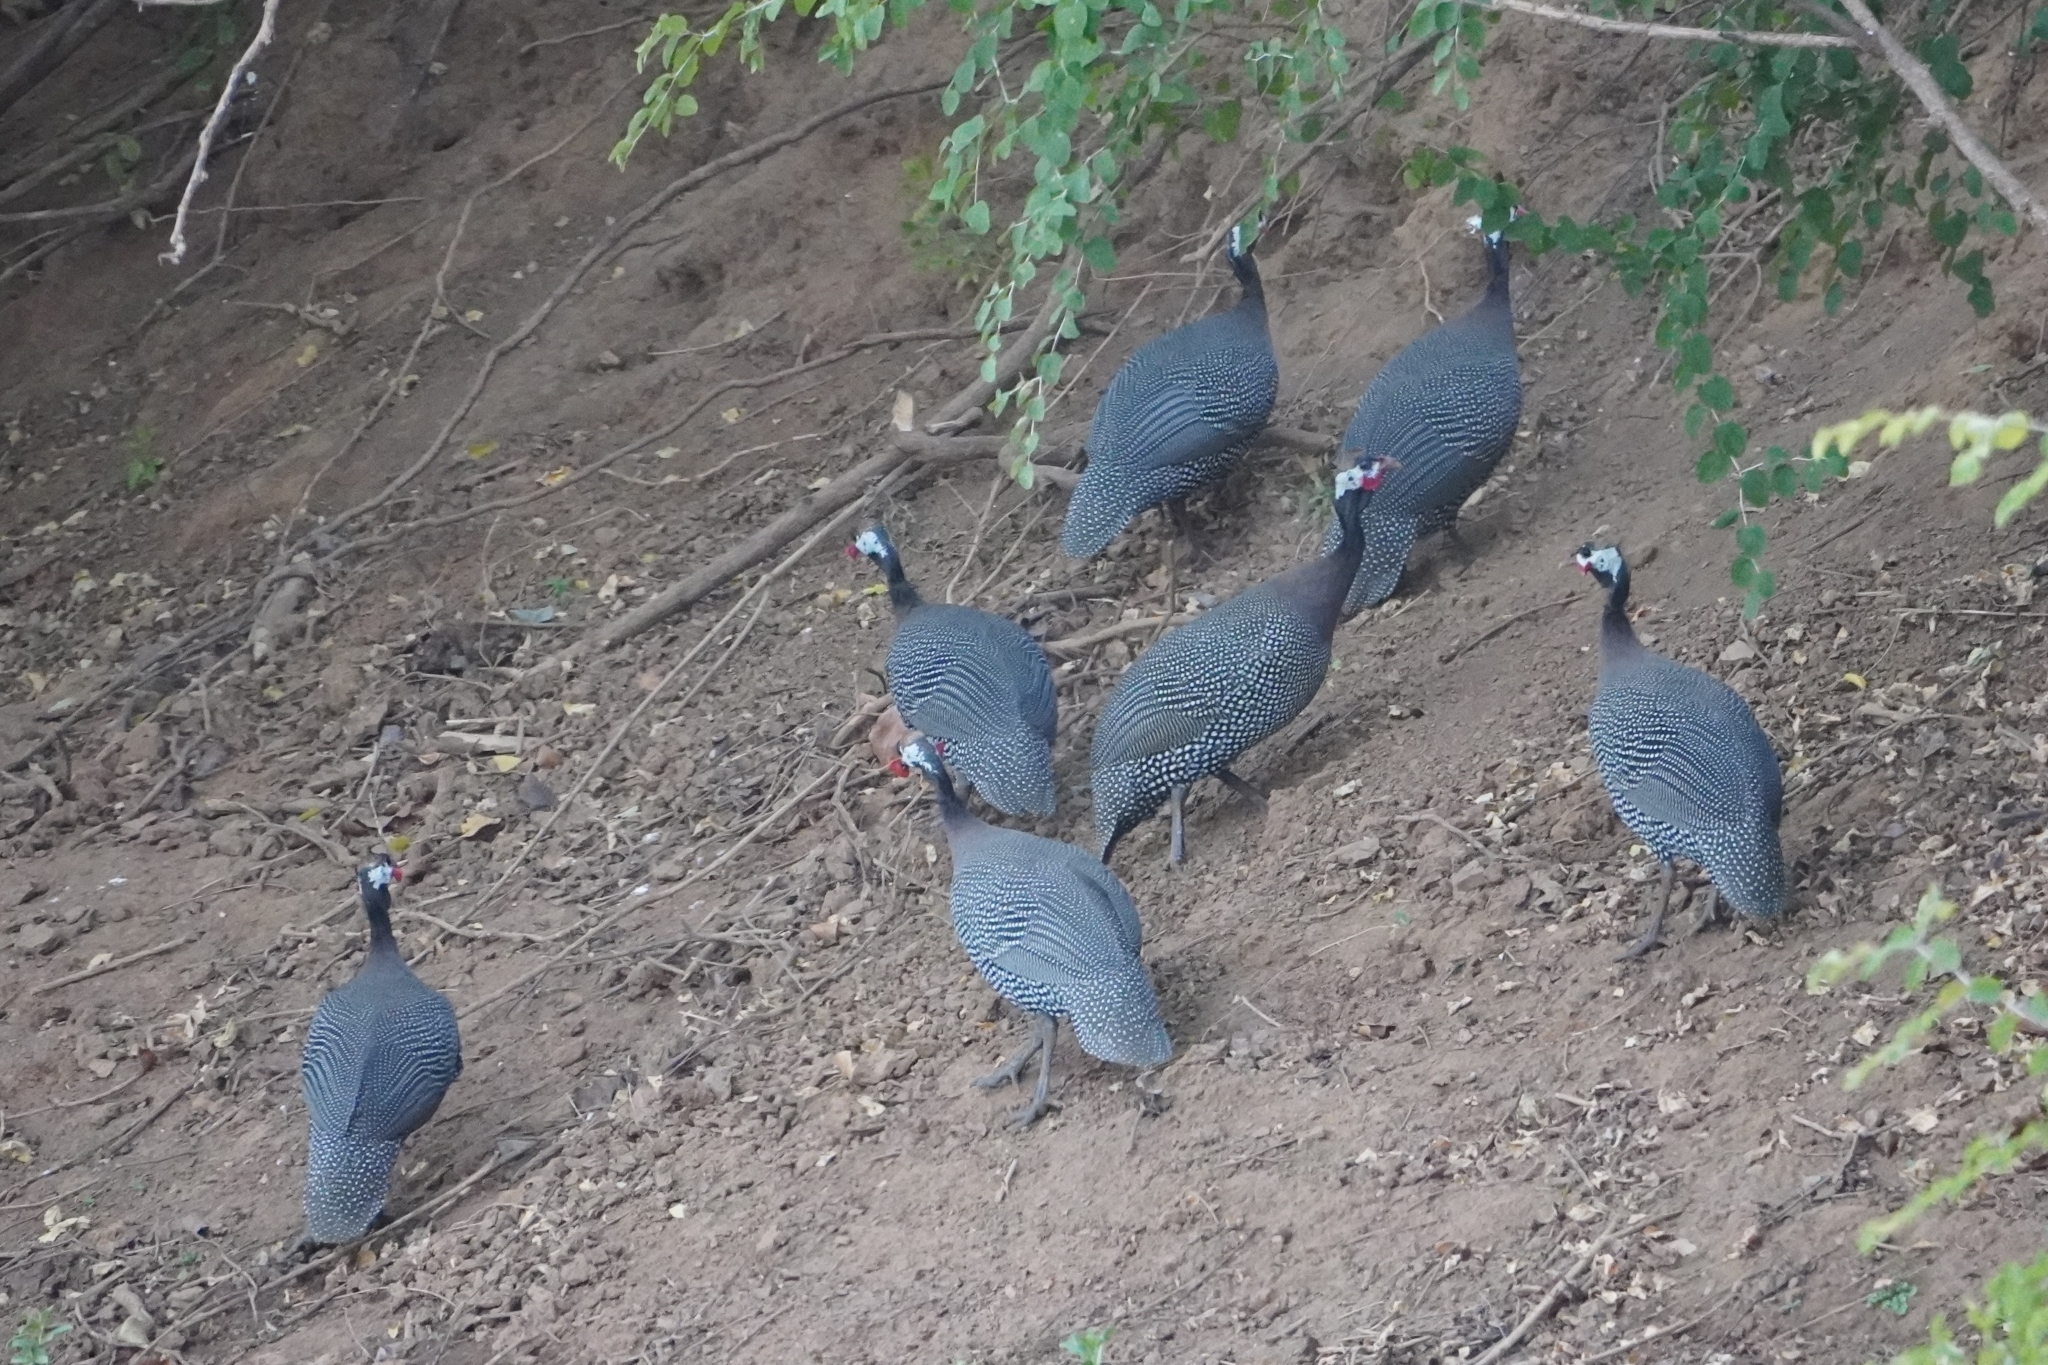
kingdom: Animalia
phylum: Chordata
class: Aves
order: Galliformes
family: Numididae
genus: Numida
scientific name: Numida meleagris
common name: Helmeted guineafowl
